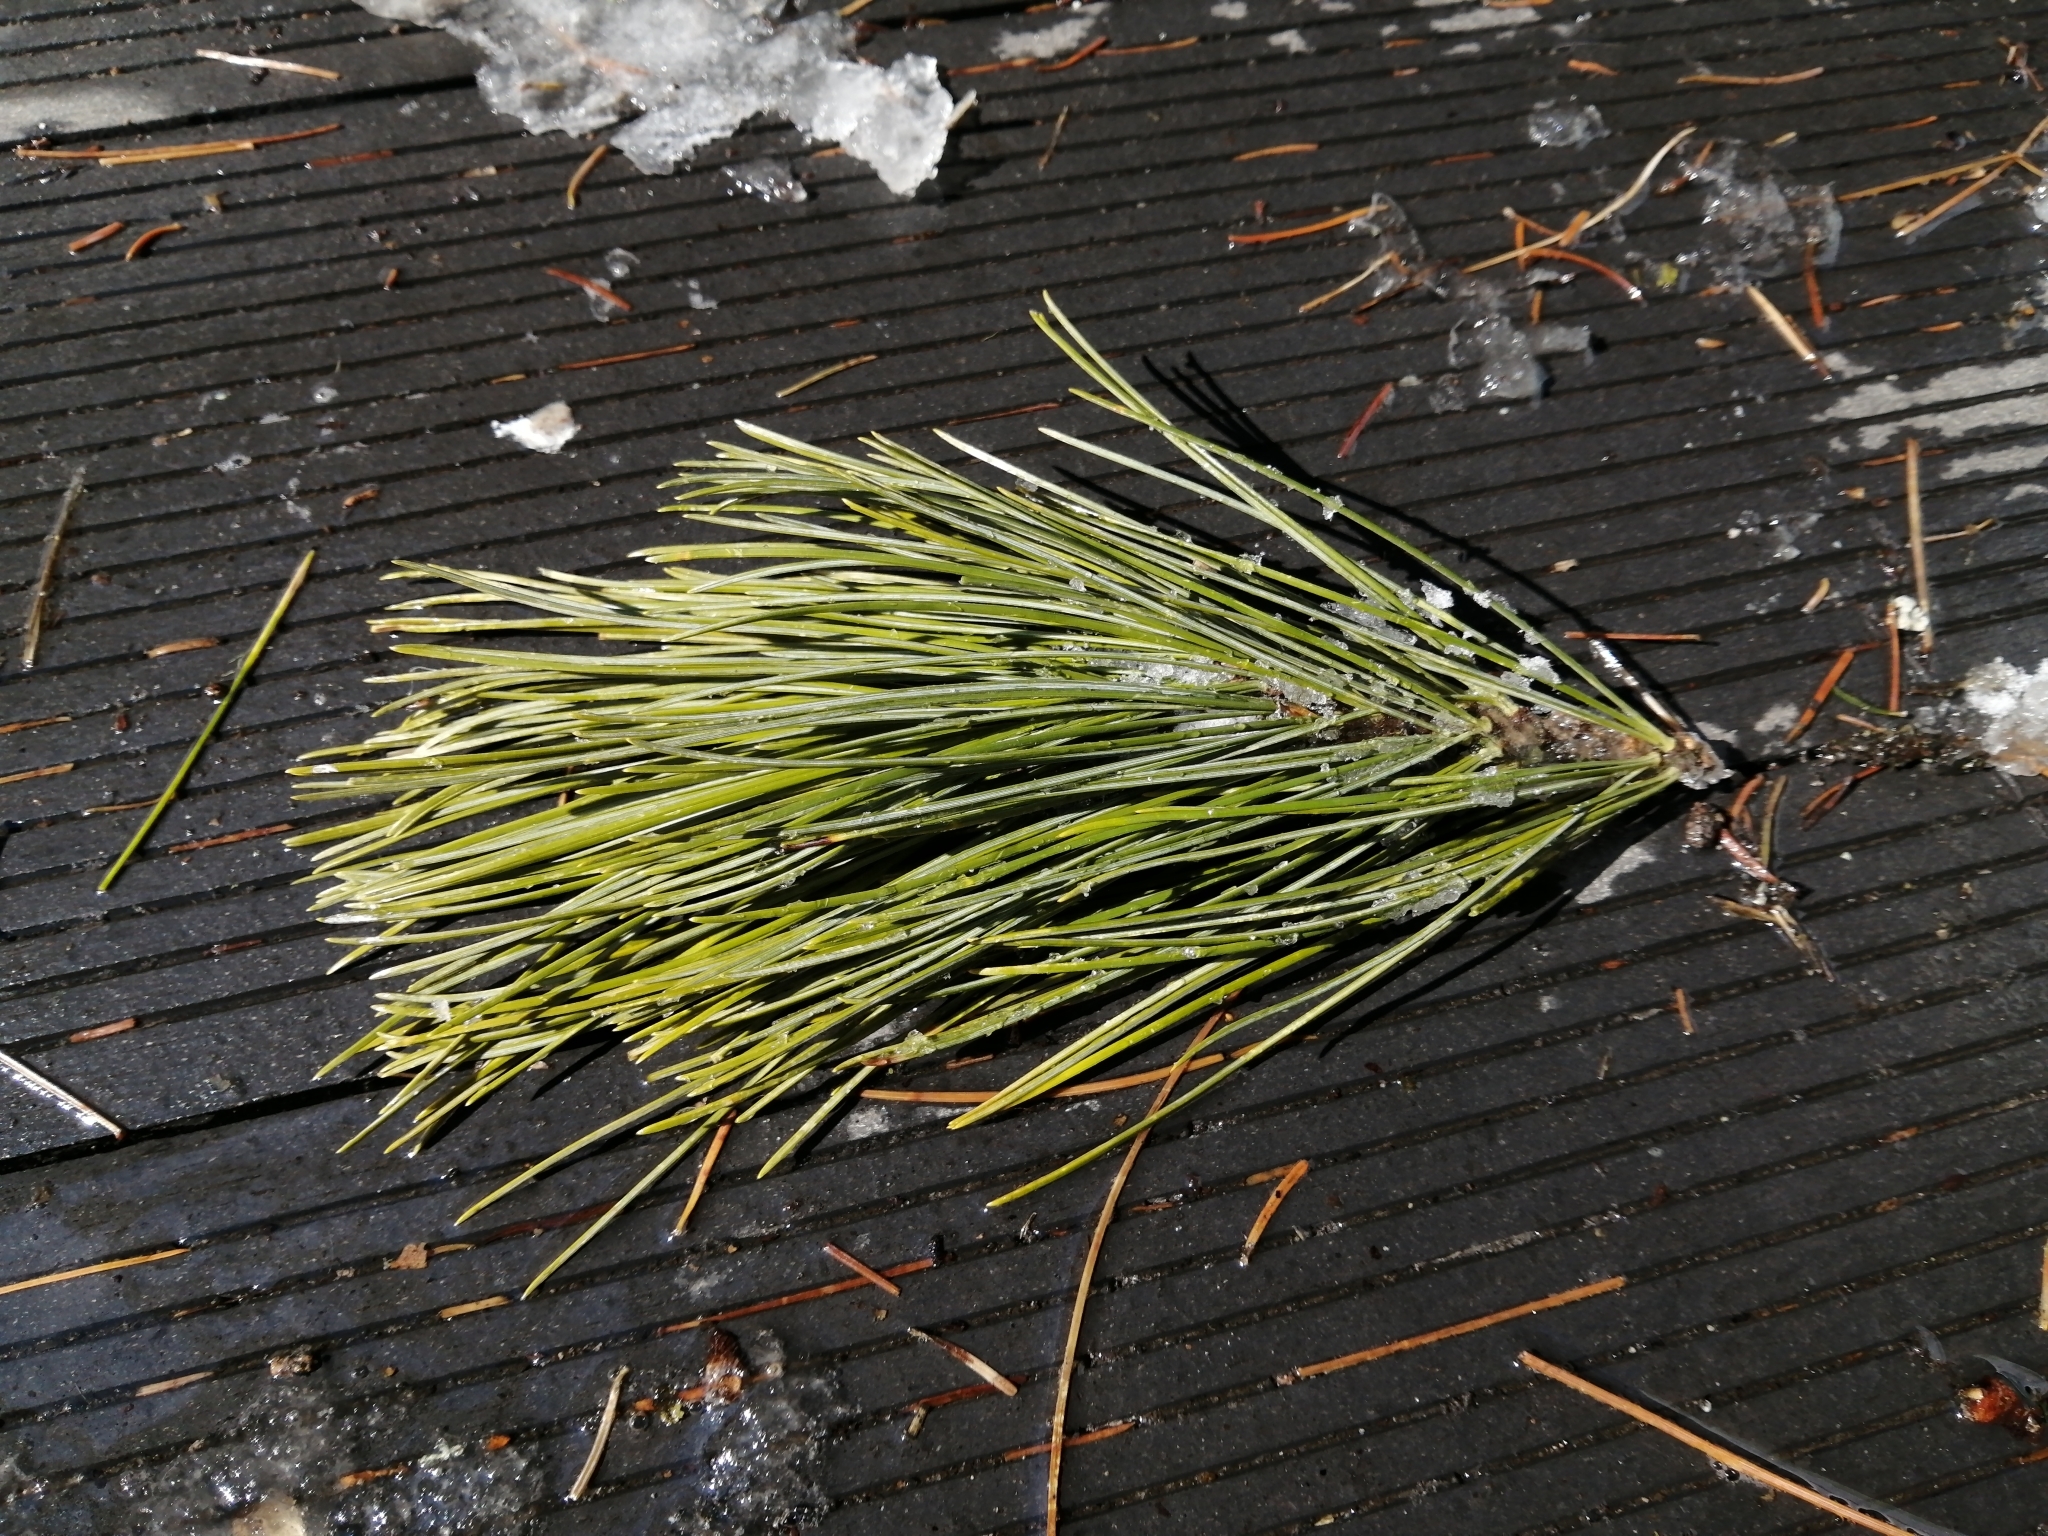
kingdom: Plantae
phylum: Tracheophyta
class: Pinopsida
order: Pinales
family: Pinaceae
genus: Pinus
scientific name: Pinus sibirica
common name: Siberian pine
